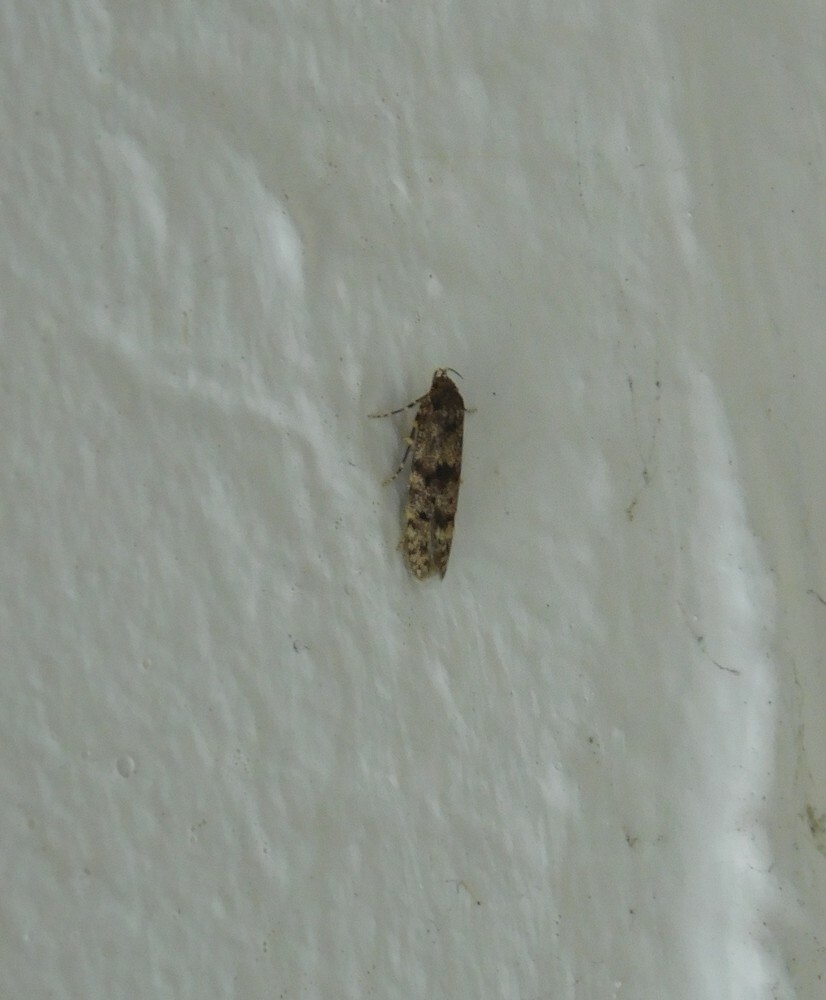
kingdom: Animalia
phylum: Arthropoda
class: Insecta
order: Lepidoptera
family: Blastobasidae
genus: Blastobasis
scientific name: Blastobasis marmorosella
